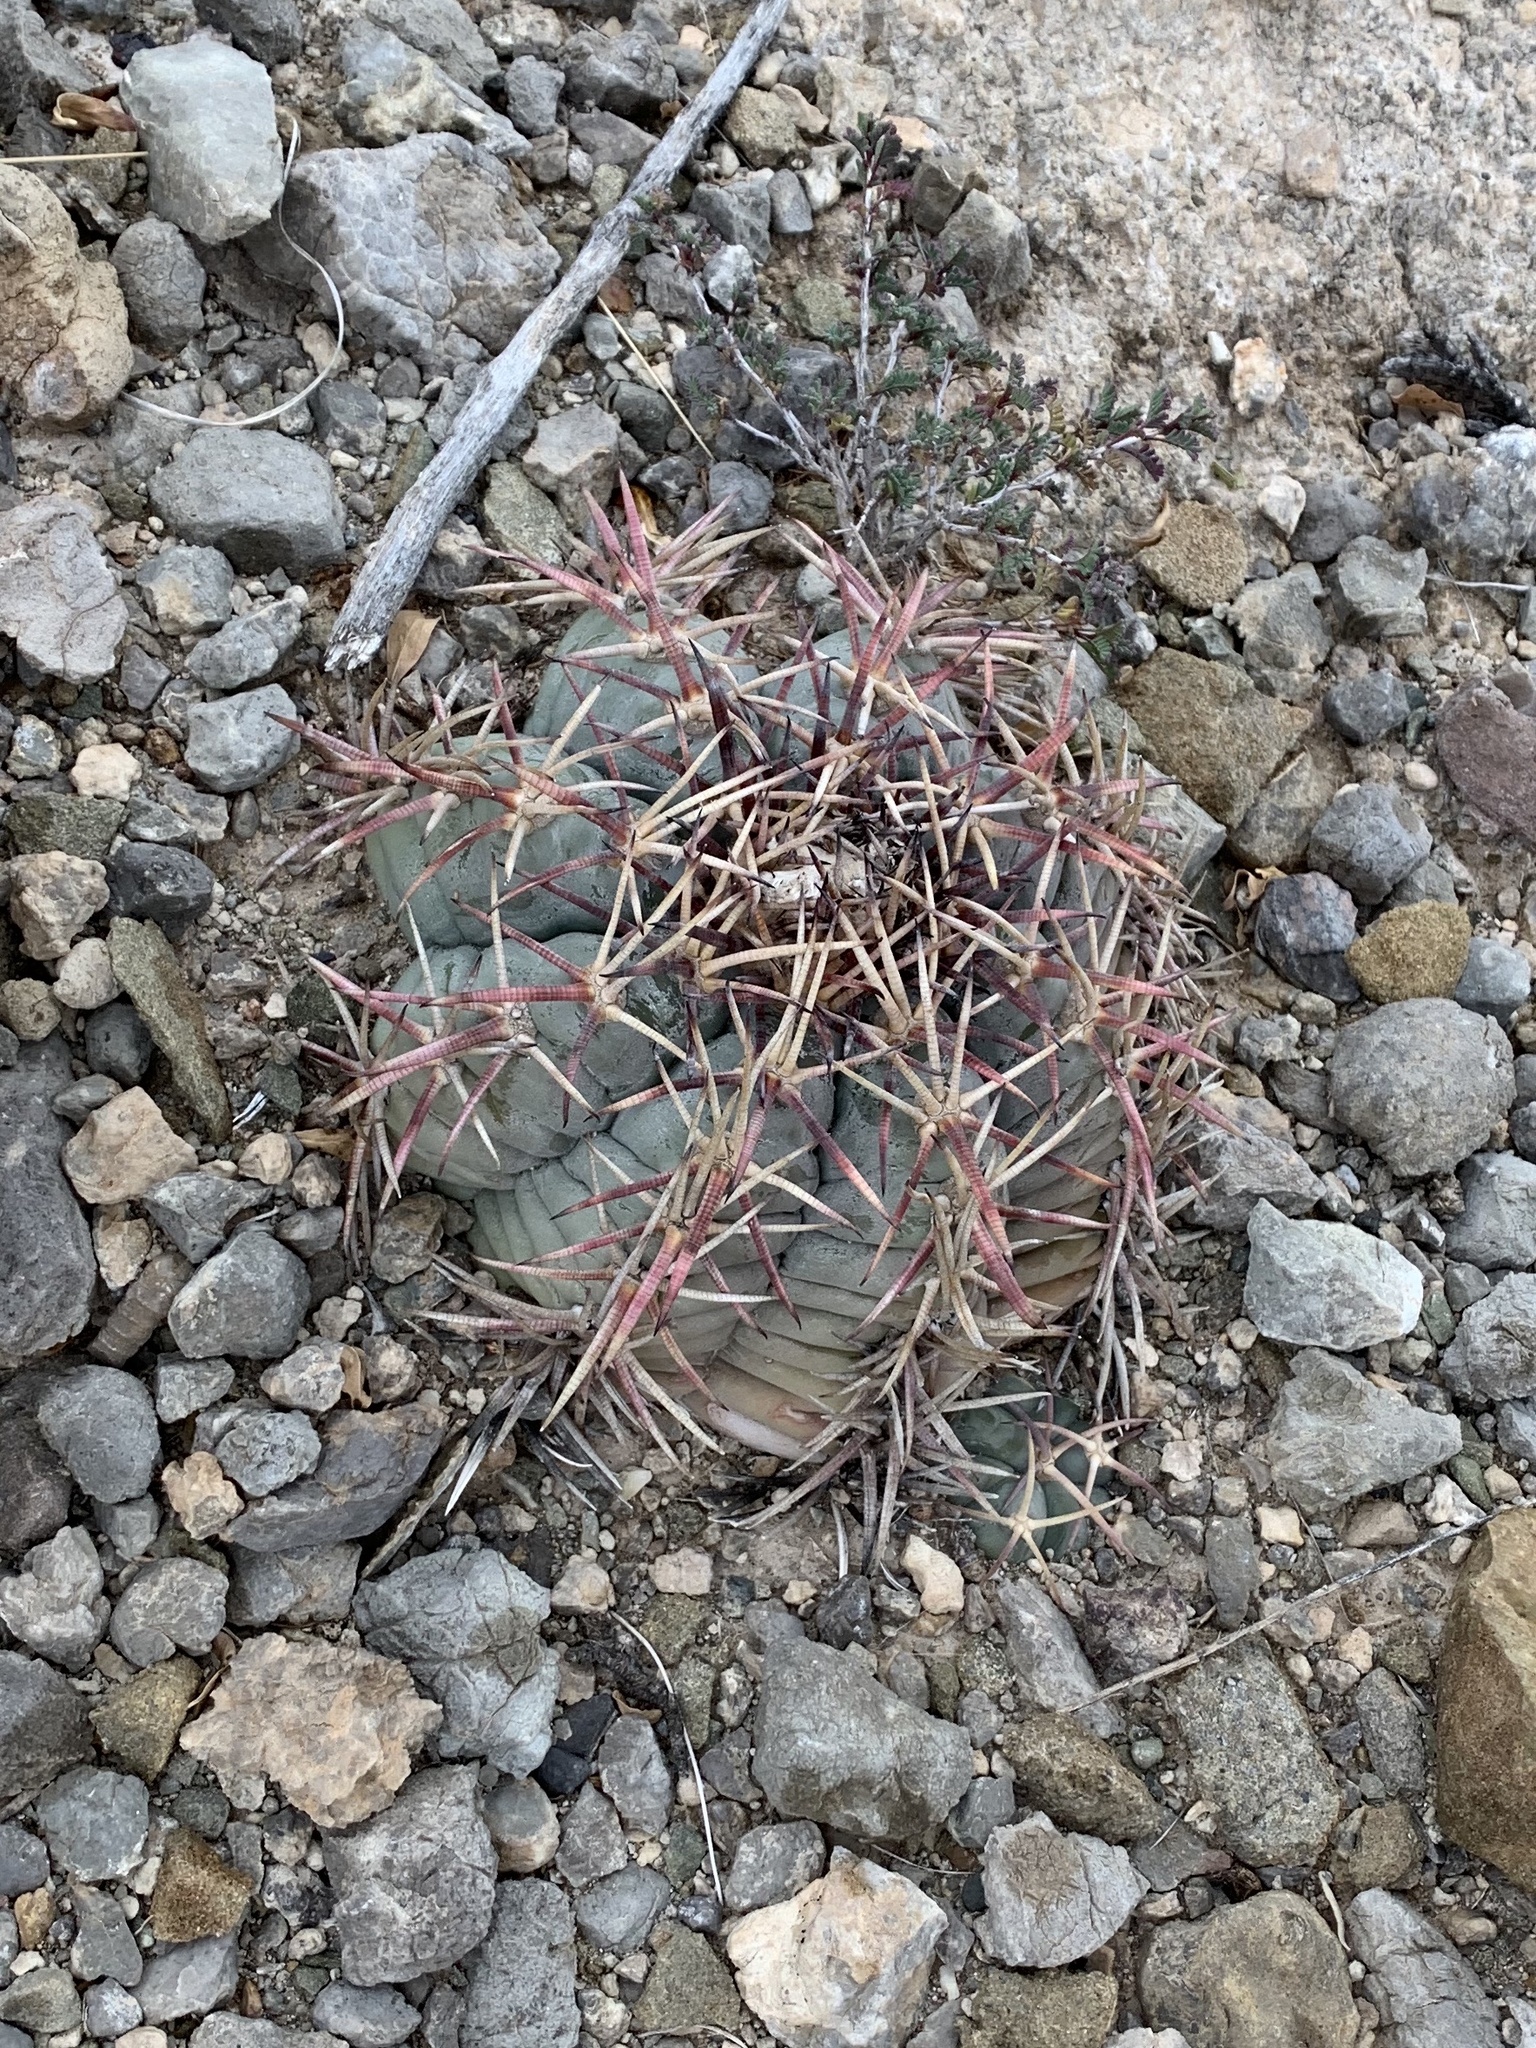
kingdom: Plantae
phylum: Tracheophyta
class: Magnoliopsida
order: Caryophyllales
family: Cactaceae
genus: Echinocactus
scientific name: Echinocactus horizonthalonius
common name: Devilshead
